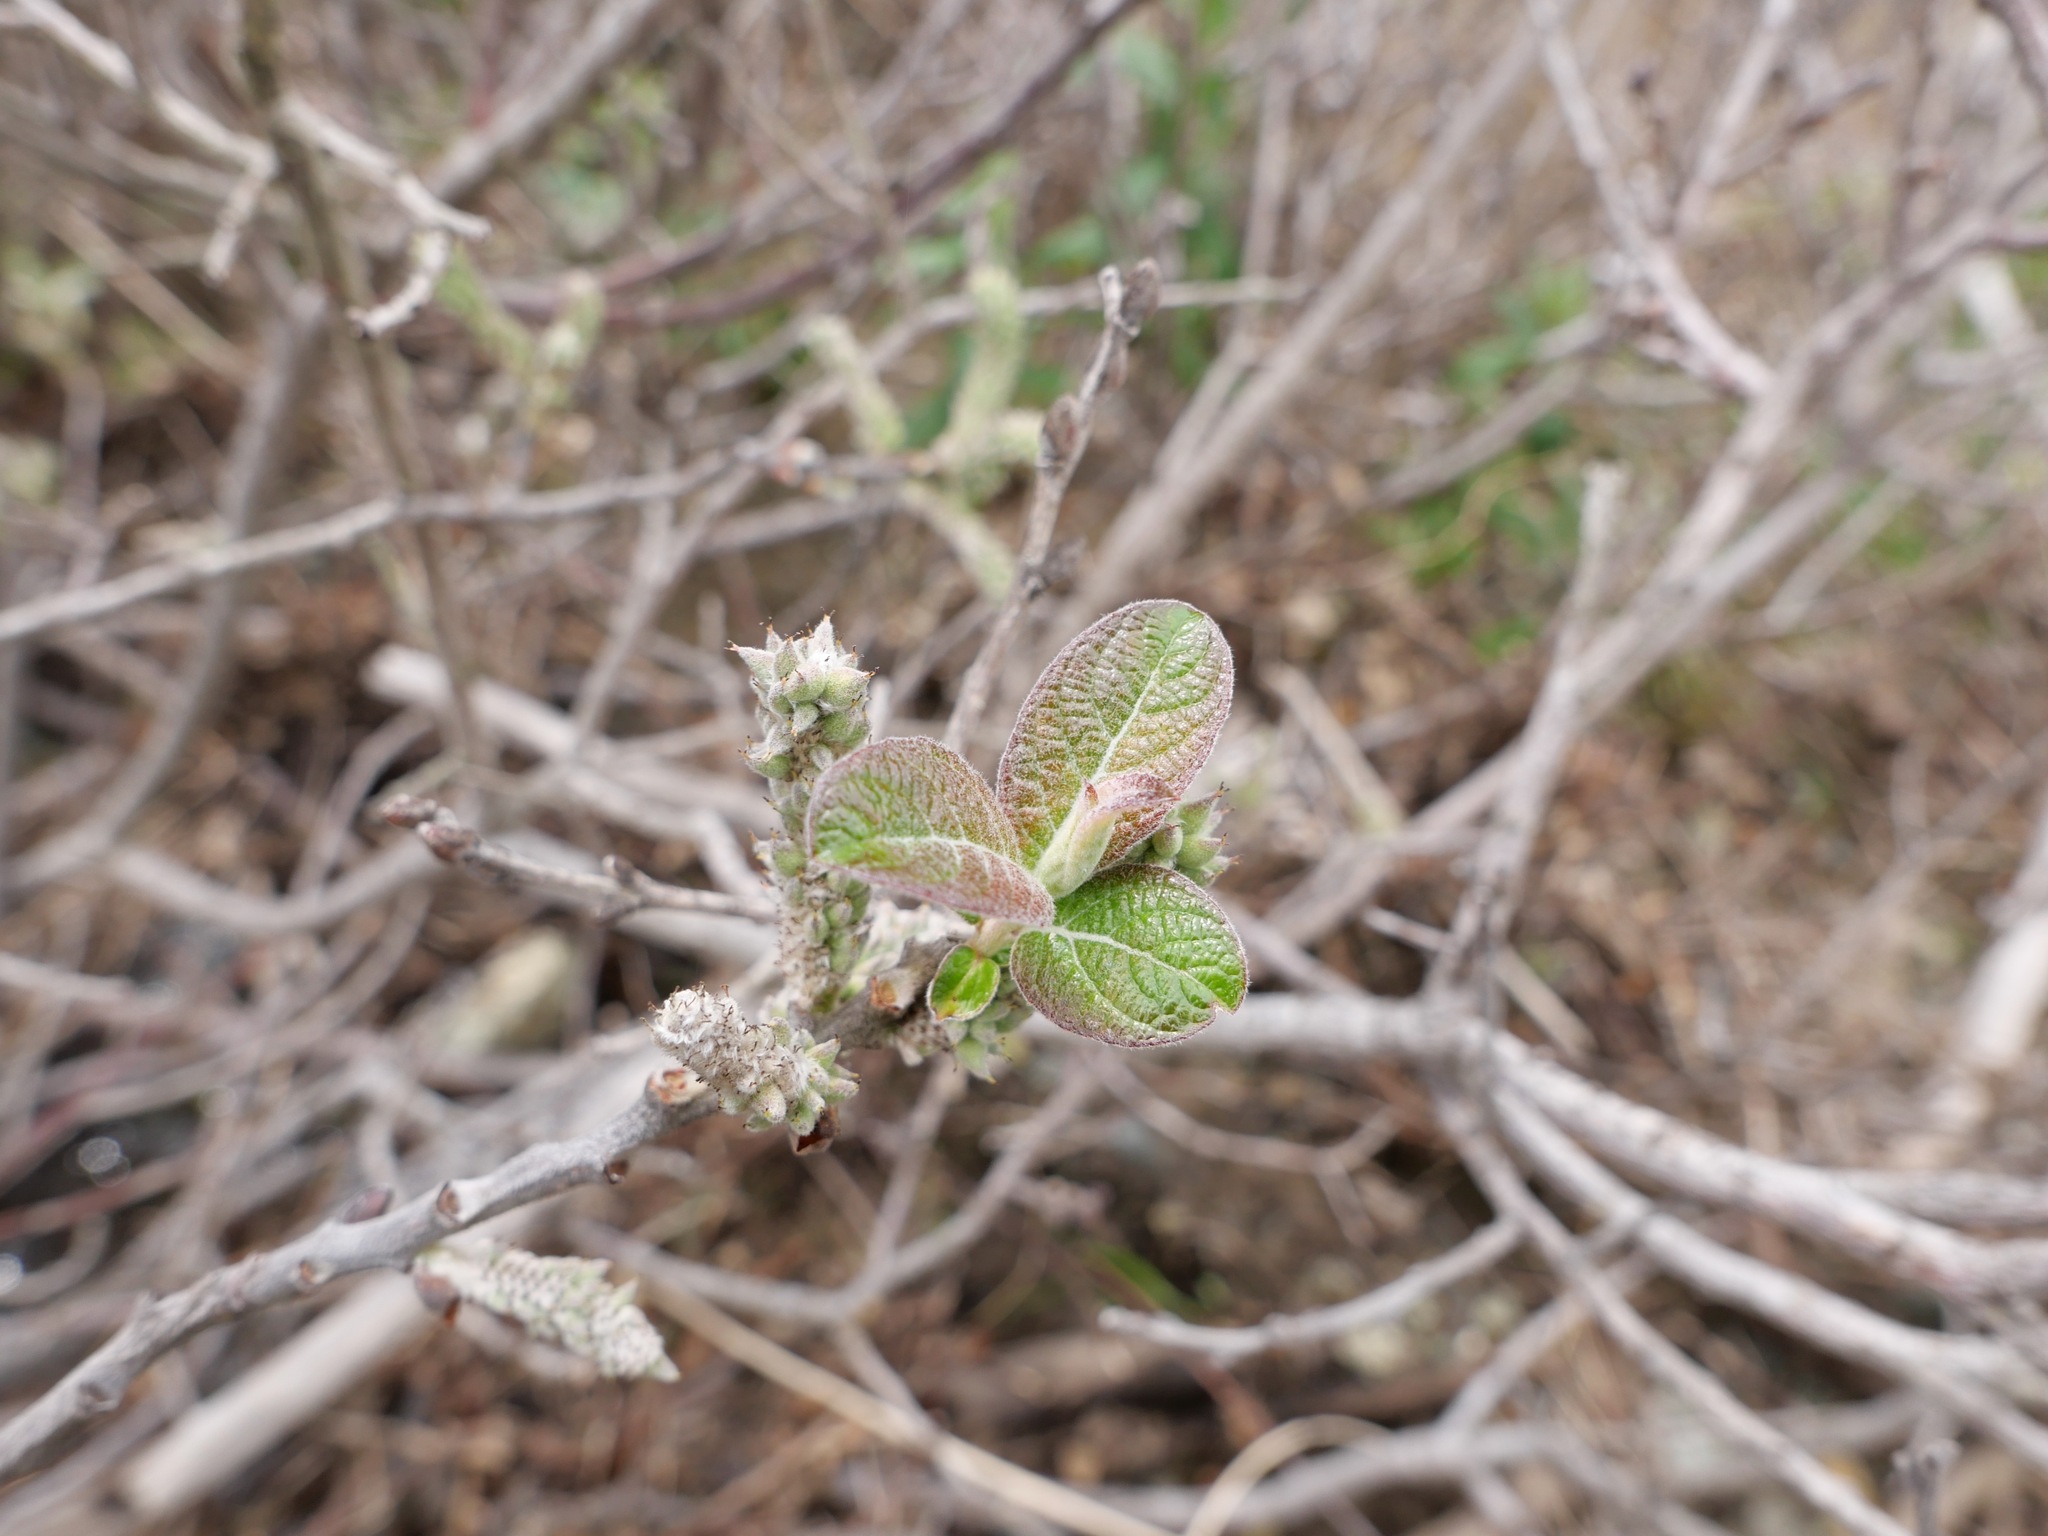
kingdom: Plantae
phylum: Tracheophyta
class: Magnoliopsida
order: Malpighiales
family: Salicaceae
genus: Salix
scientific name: Salix breweri
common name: Brewer’s willow
